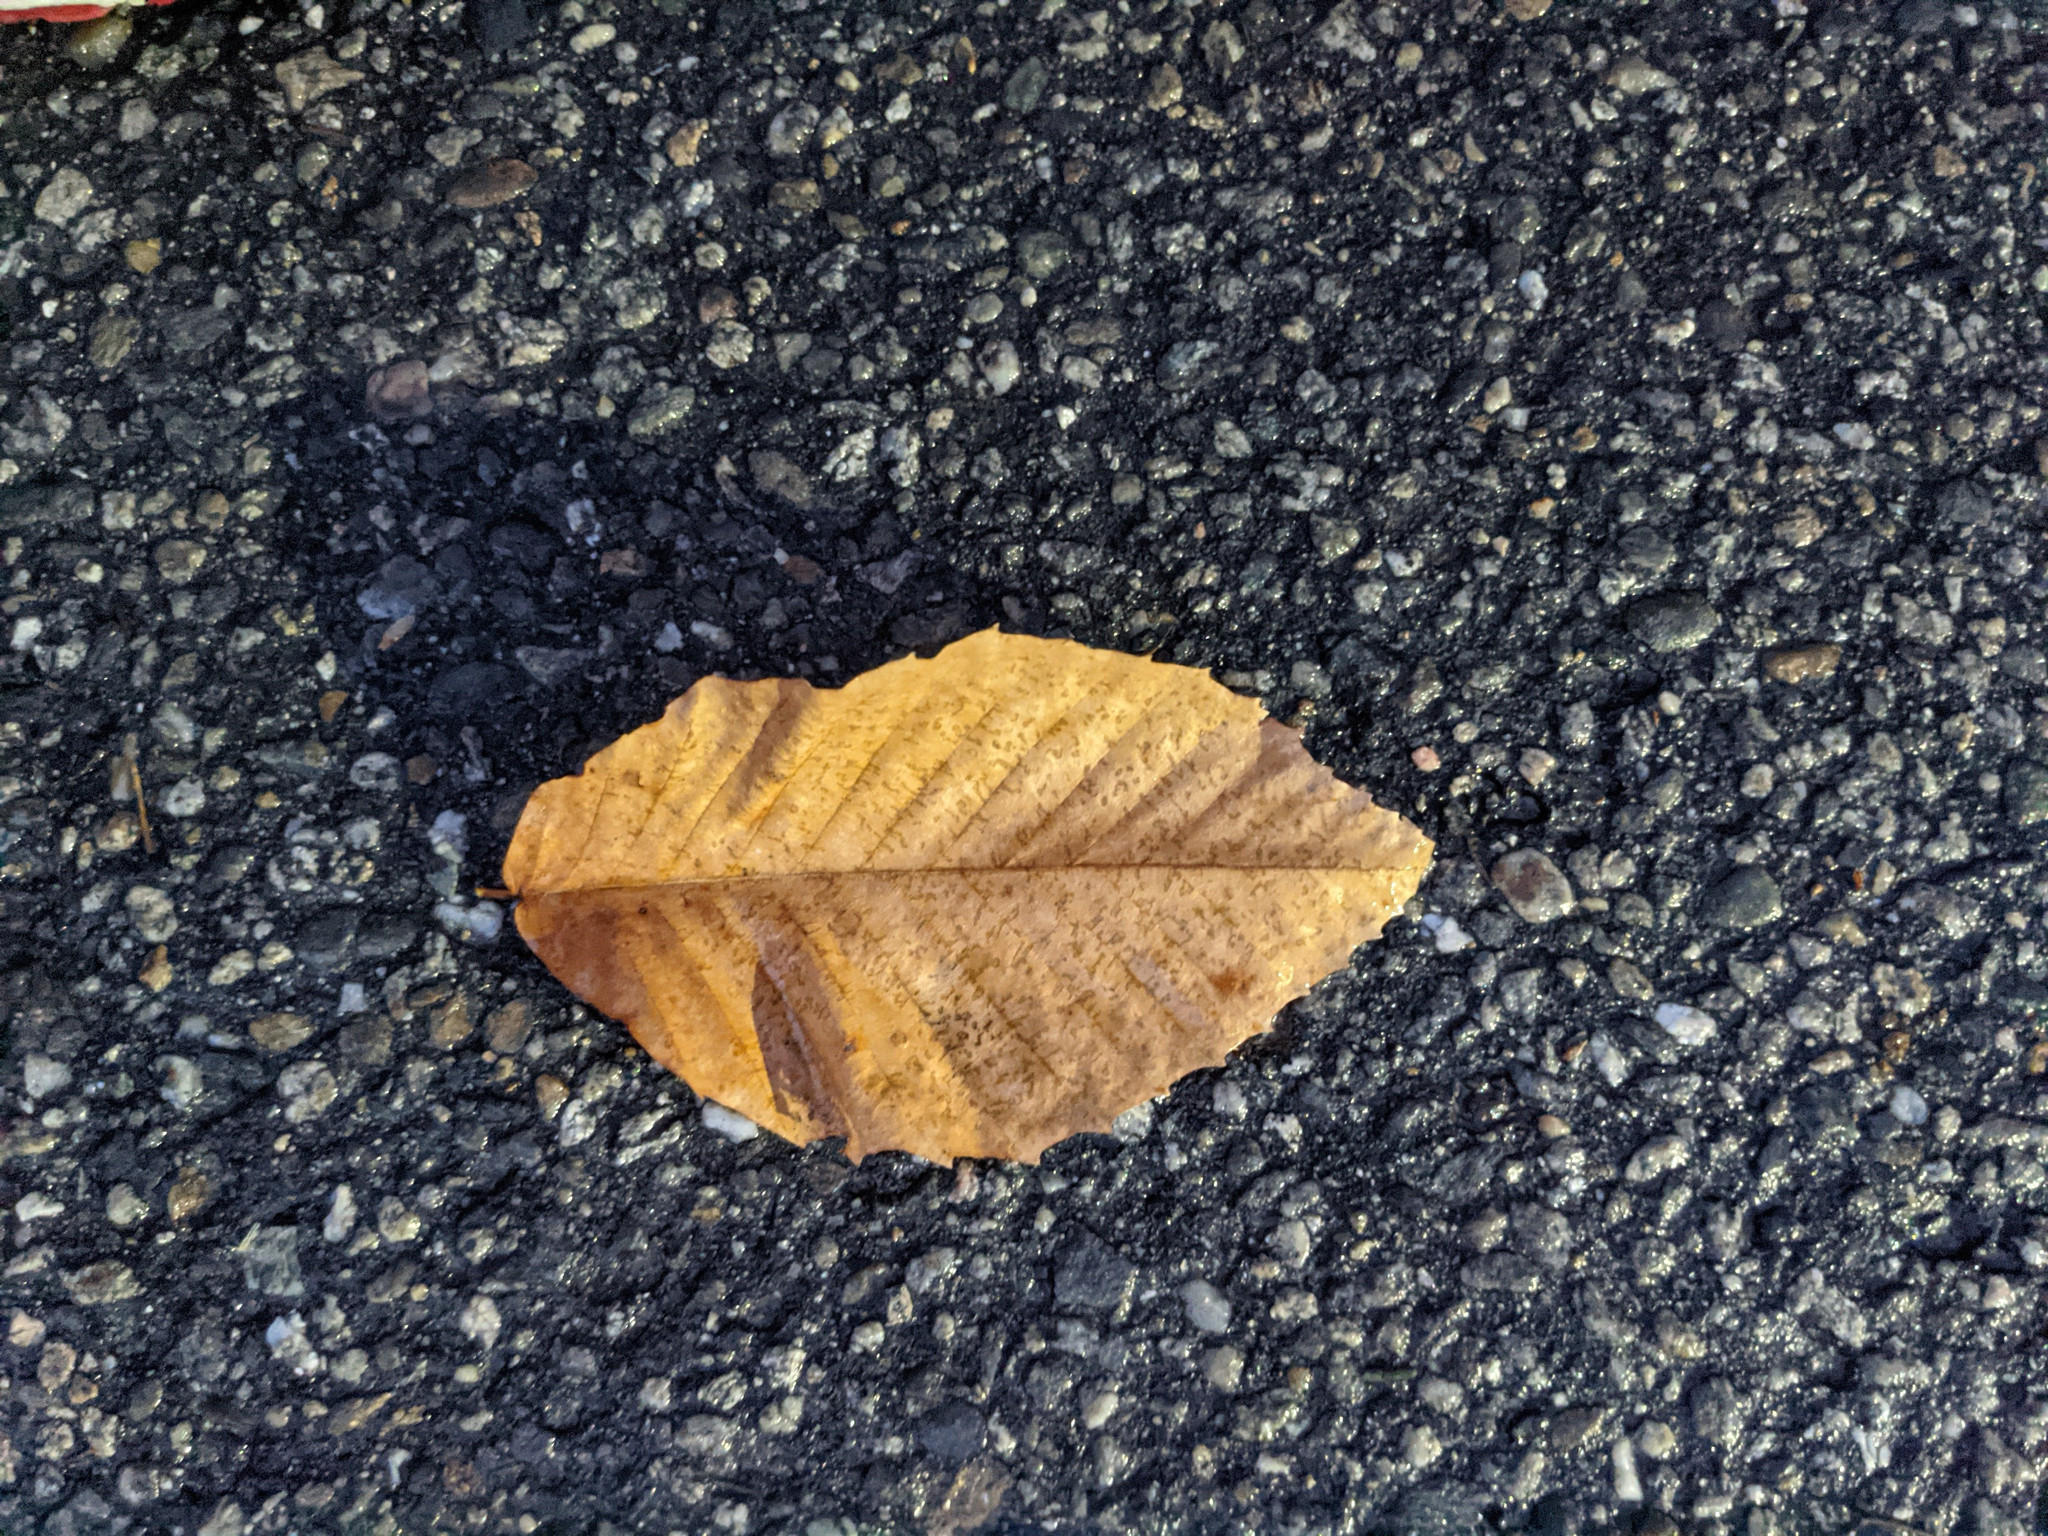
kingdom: Plantae
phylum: Tracheophyta
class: Magnoliopsida
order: Fagales
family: Fagaceae
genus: Fagus
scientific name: Fagus grandifolia
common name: American beech
